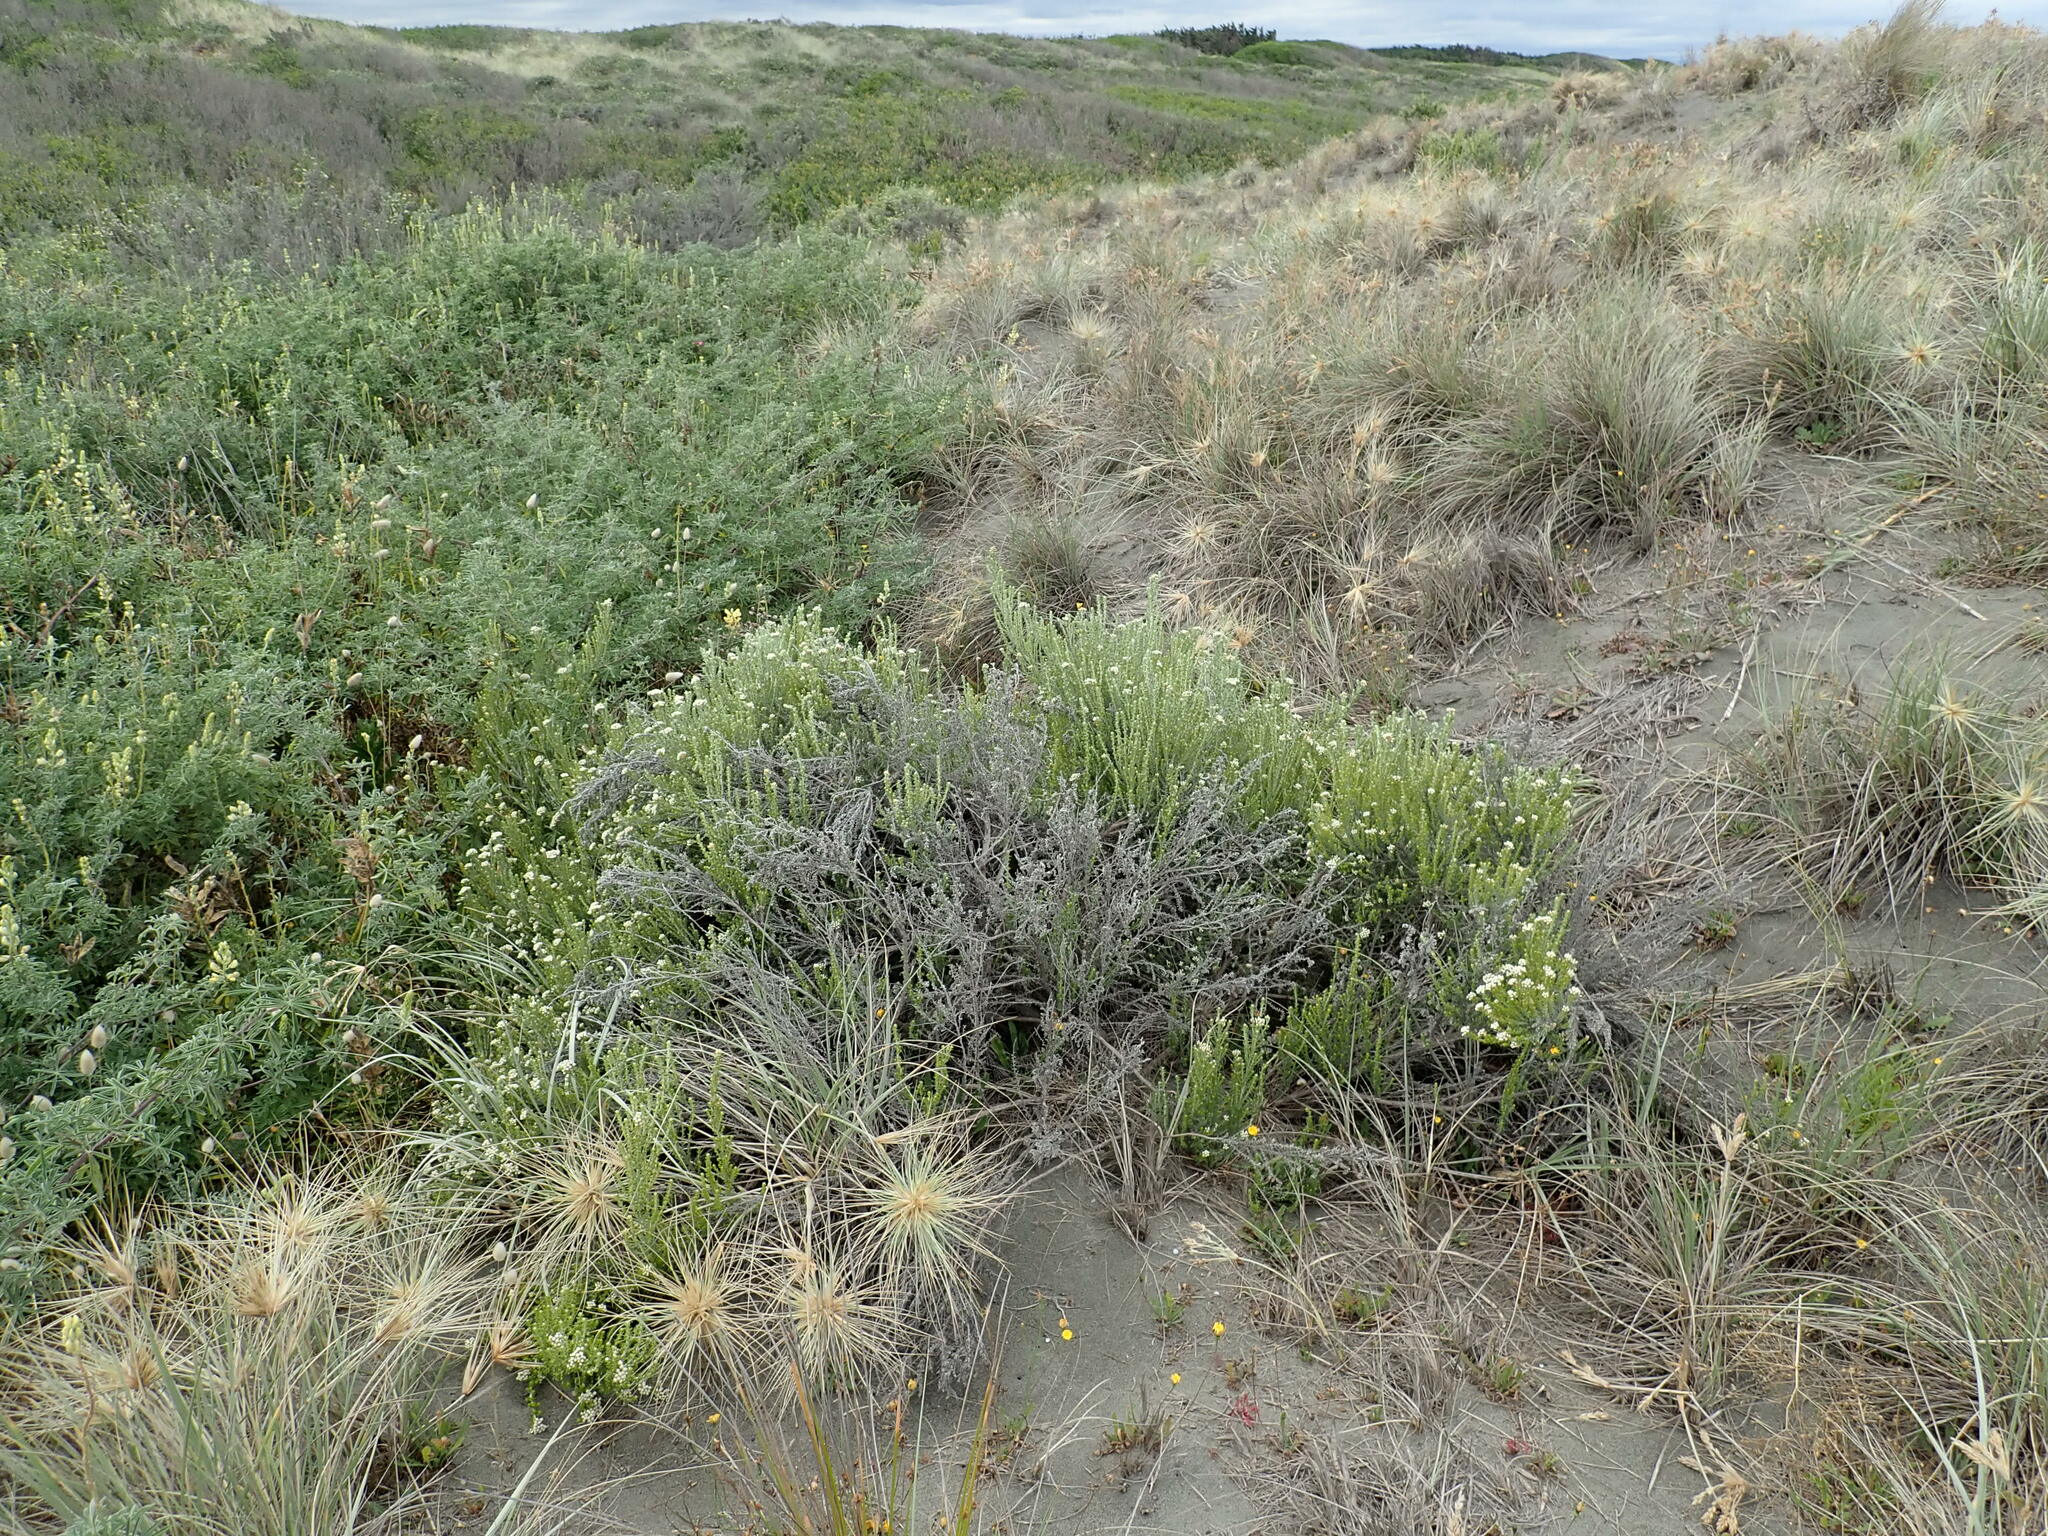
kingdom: Plantae
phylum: Tracheophyta
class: Magnoliopsida
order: Asterales
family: Asteraceae
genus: Ozothamnus
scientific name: Ozothamnus leptophyllus
